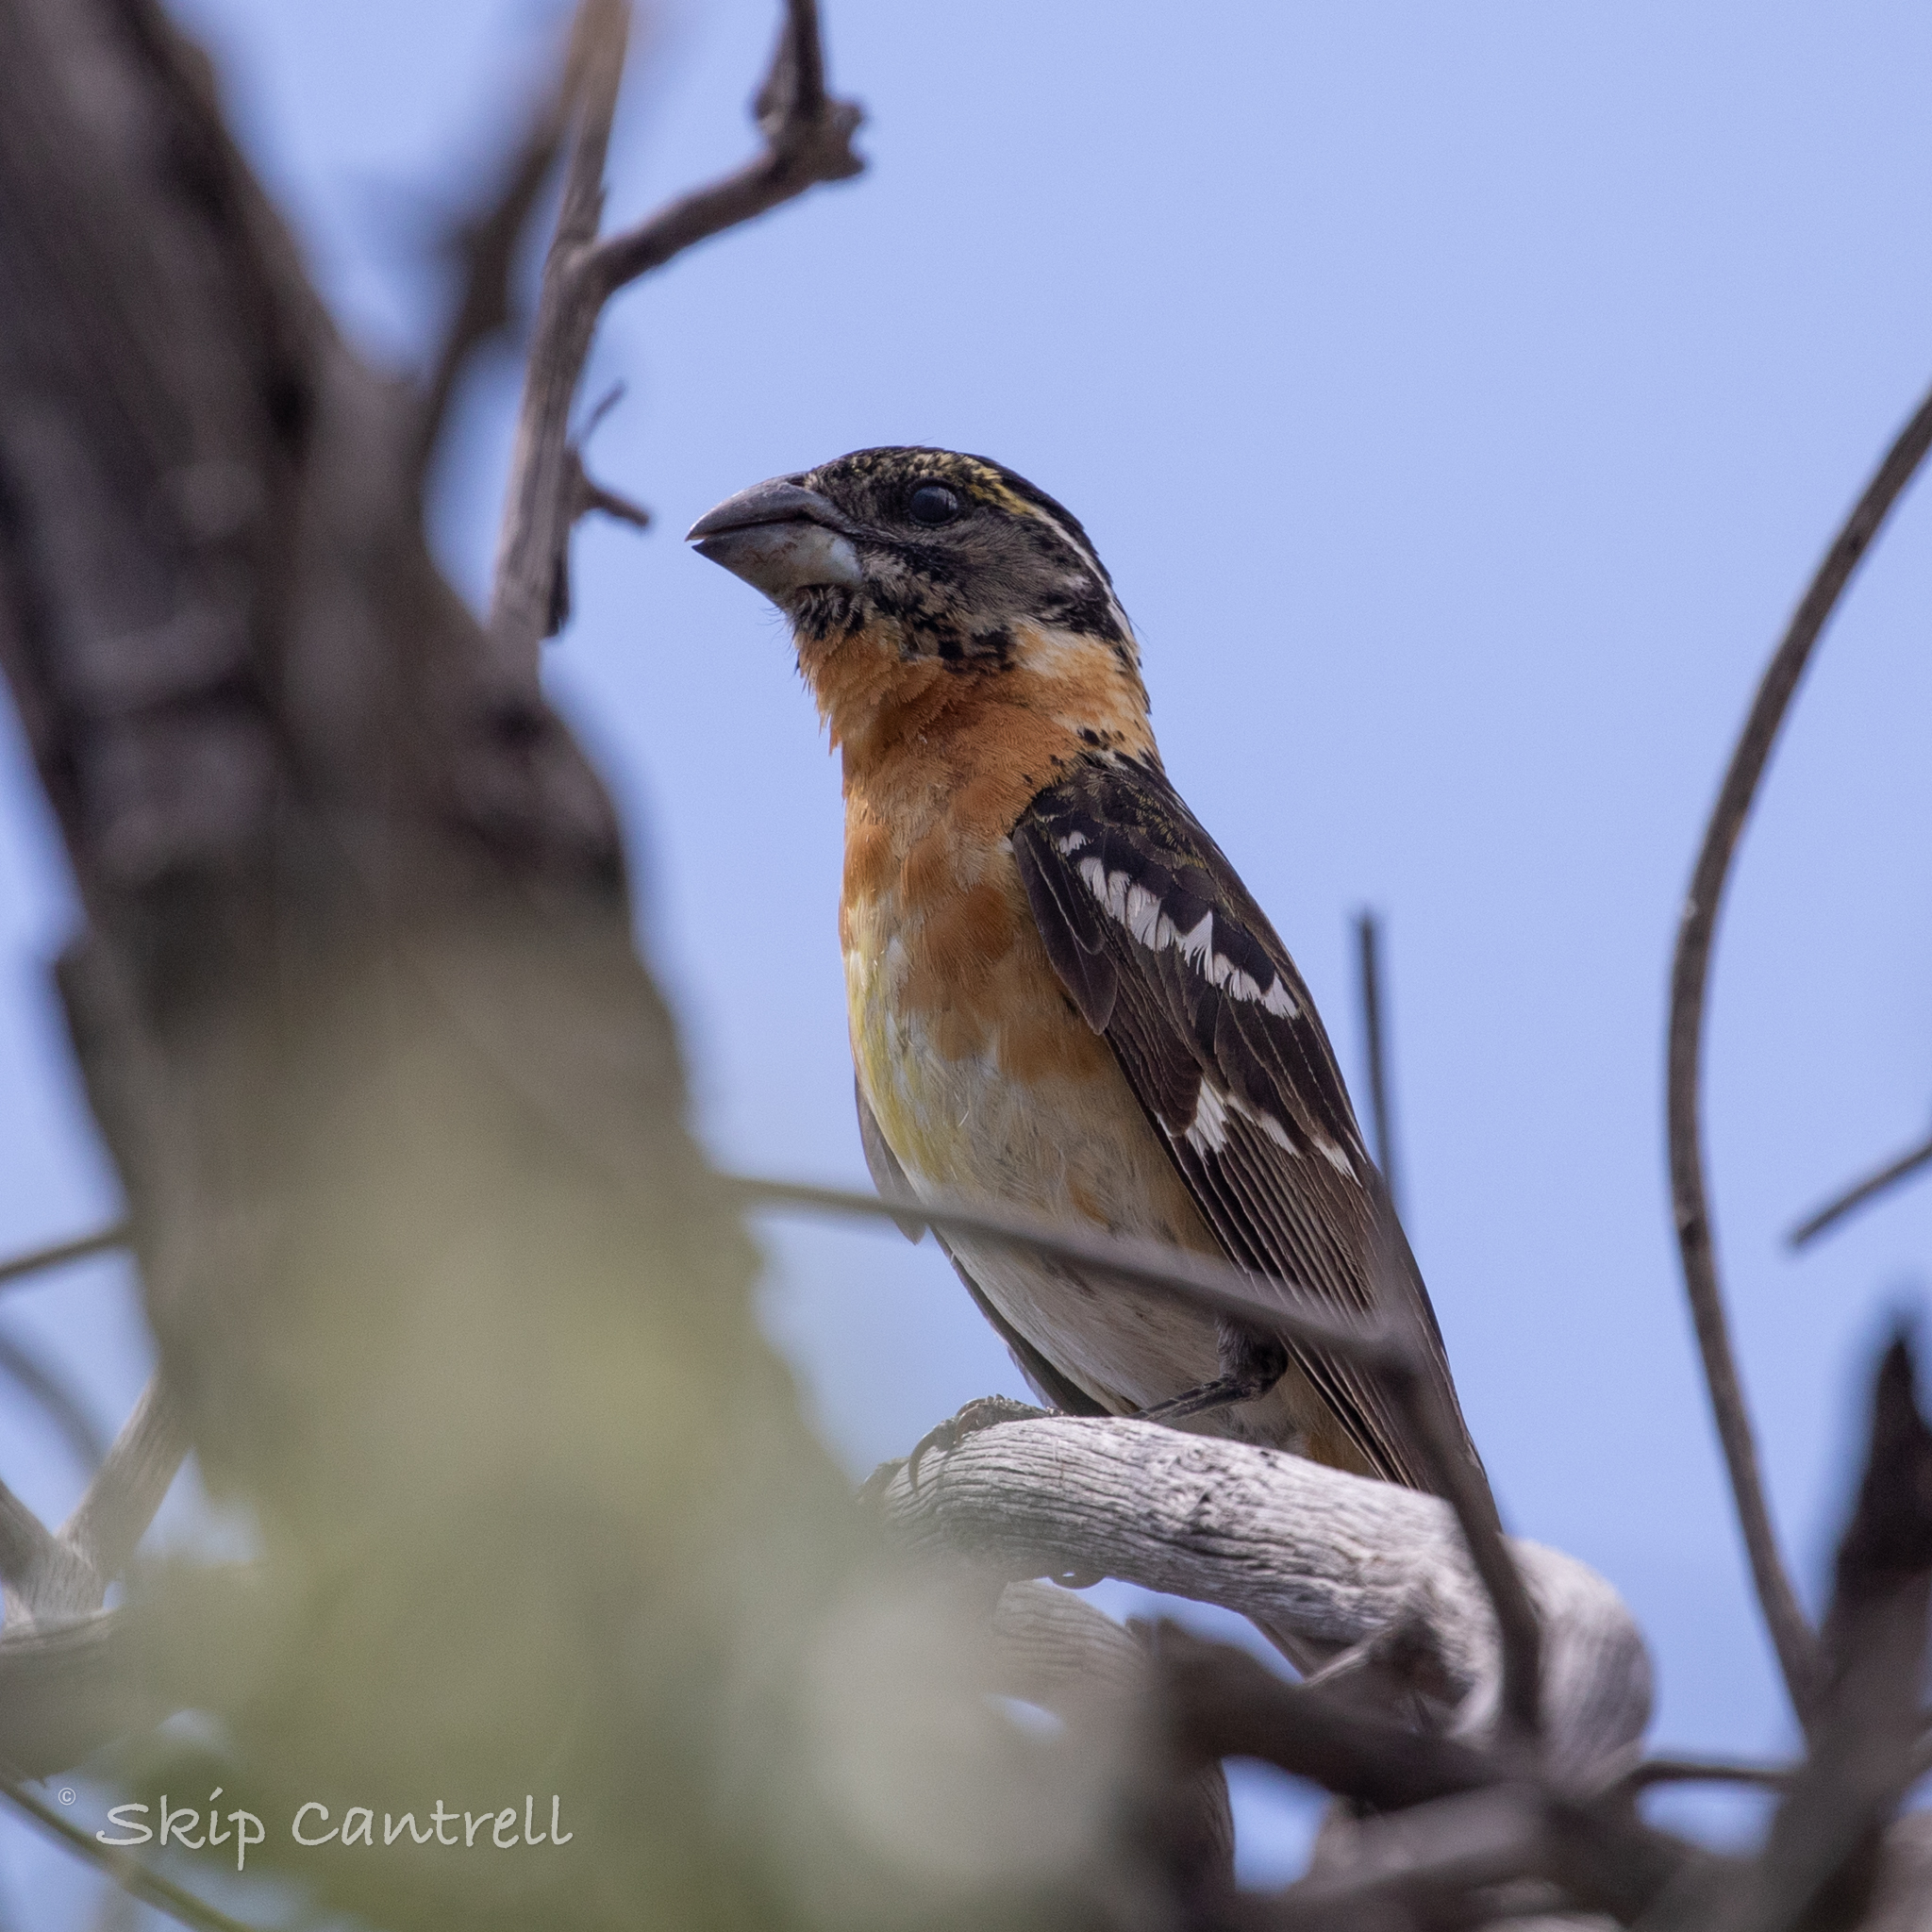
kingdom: Animalia
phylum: Chordata
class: Aves
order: Passeriformes
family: Cardinalidae
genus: Pheucticus
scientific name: Pheucticus melanocephalus
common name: Black-headed grosbeak
